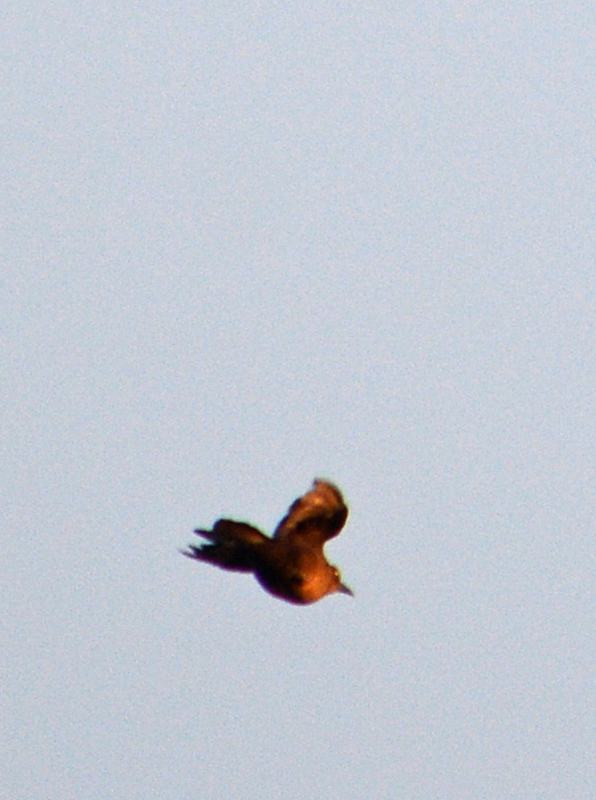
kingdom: Animalia
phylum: Chordata
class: Aves
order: Passeriformes
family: Icteridae
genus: Quiscalus
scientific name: Quiscalus mexicanus
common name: Great-tailed grackle
